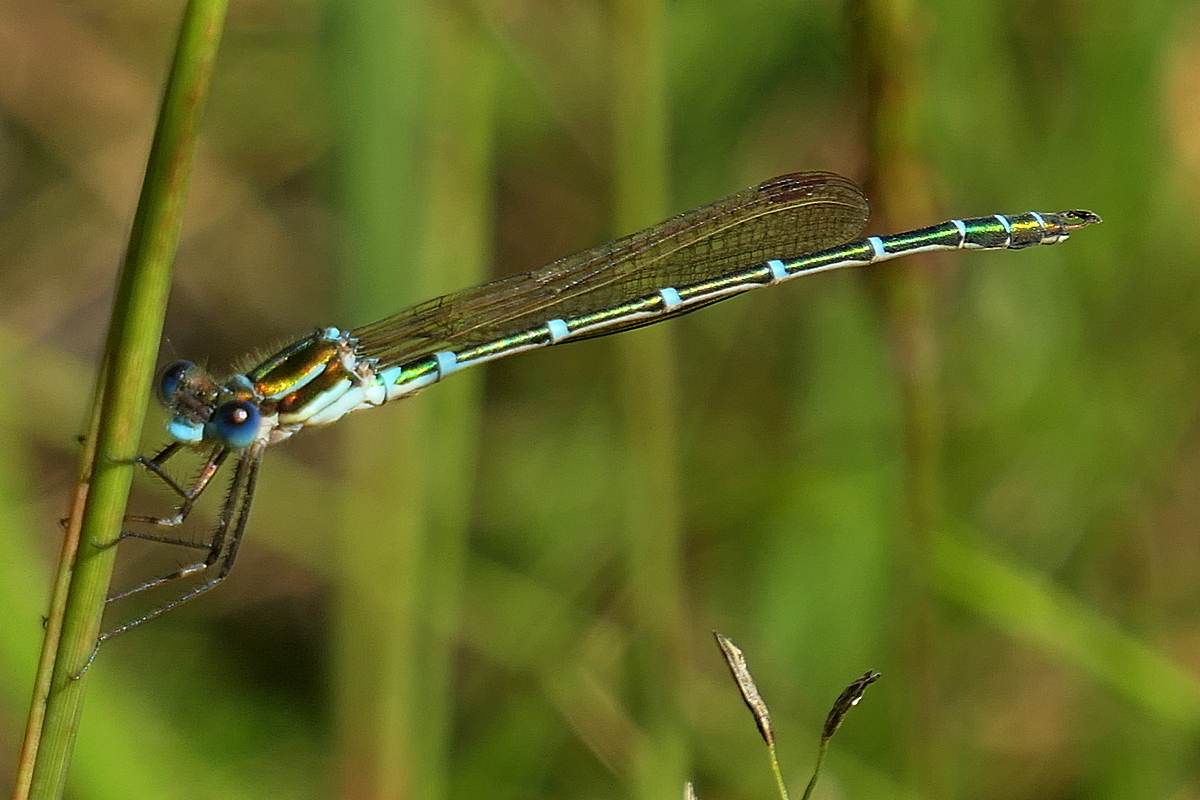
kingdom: Animalia
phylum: Arthropoda
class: Insecta
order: Odonata
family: Lestidae
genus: Austrolestes
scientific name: Austrolestes cingulatus
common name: Metallic ringtail
